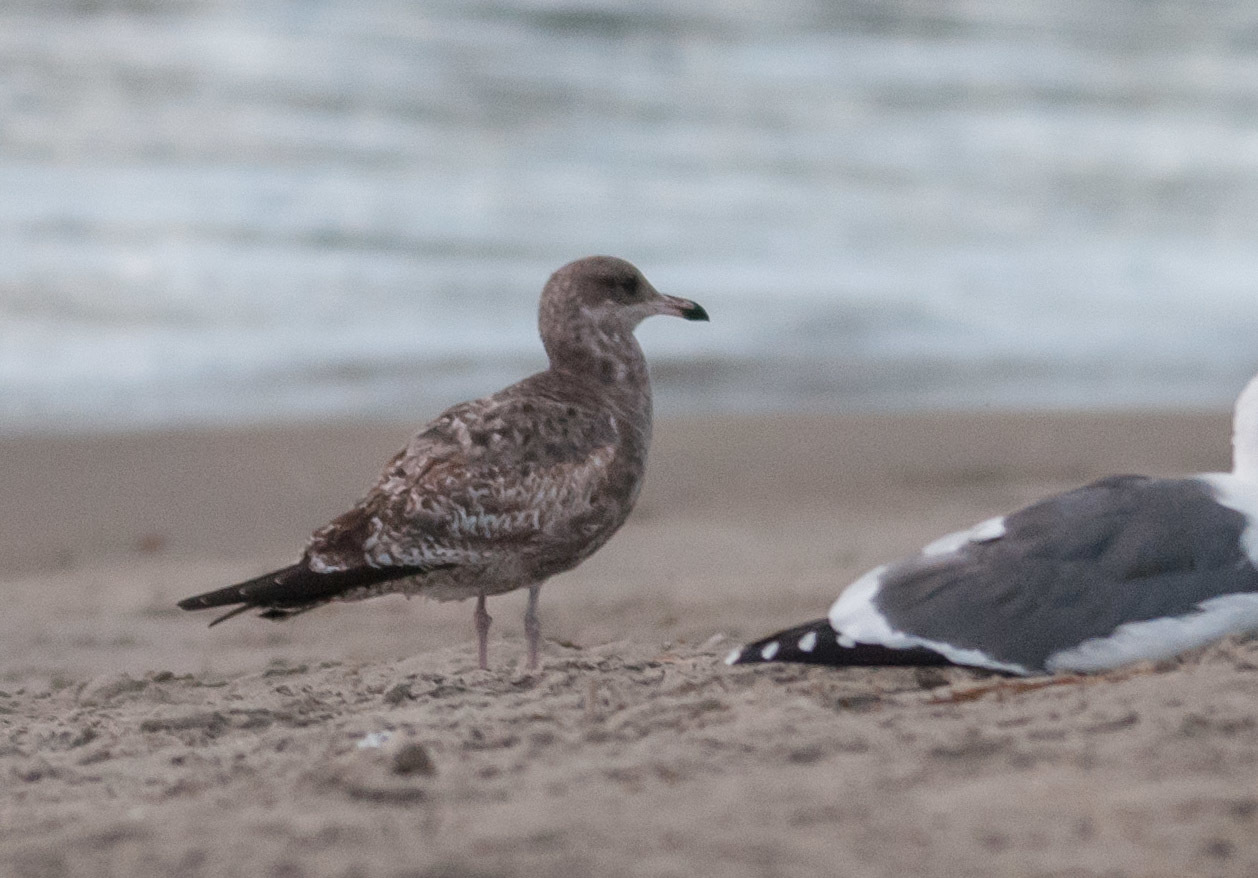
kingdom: Animalia
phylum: Chordata
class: Aves
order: Charadriiformes
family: Laridae
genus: Larus
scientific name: Larus californicus
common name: California gull
